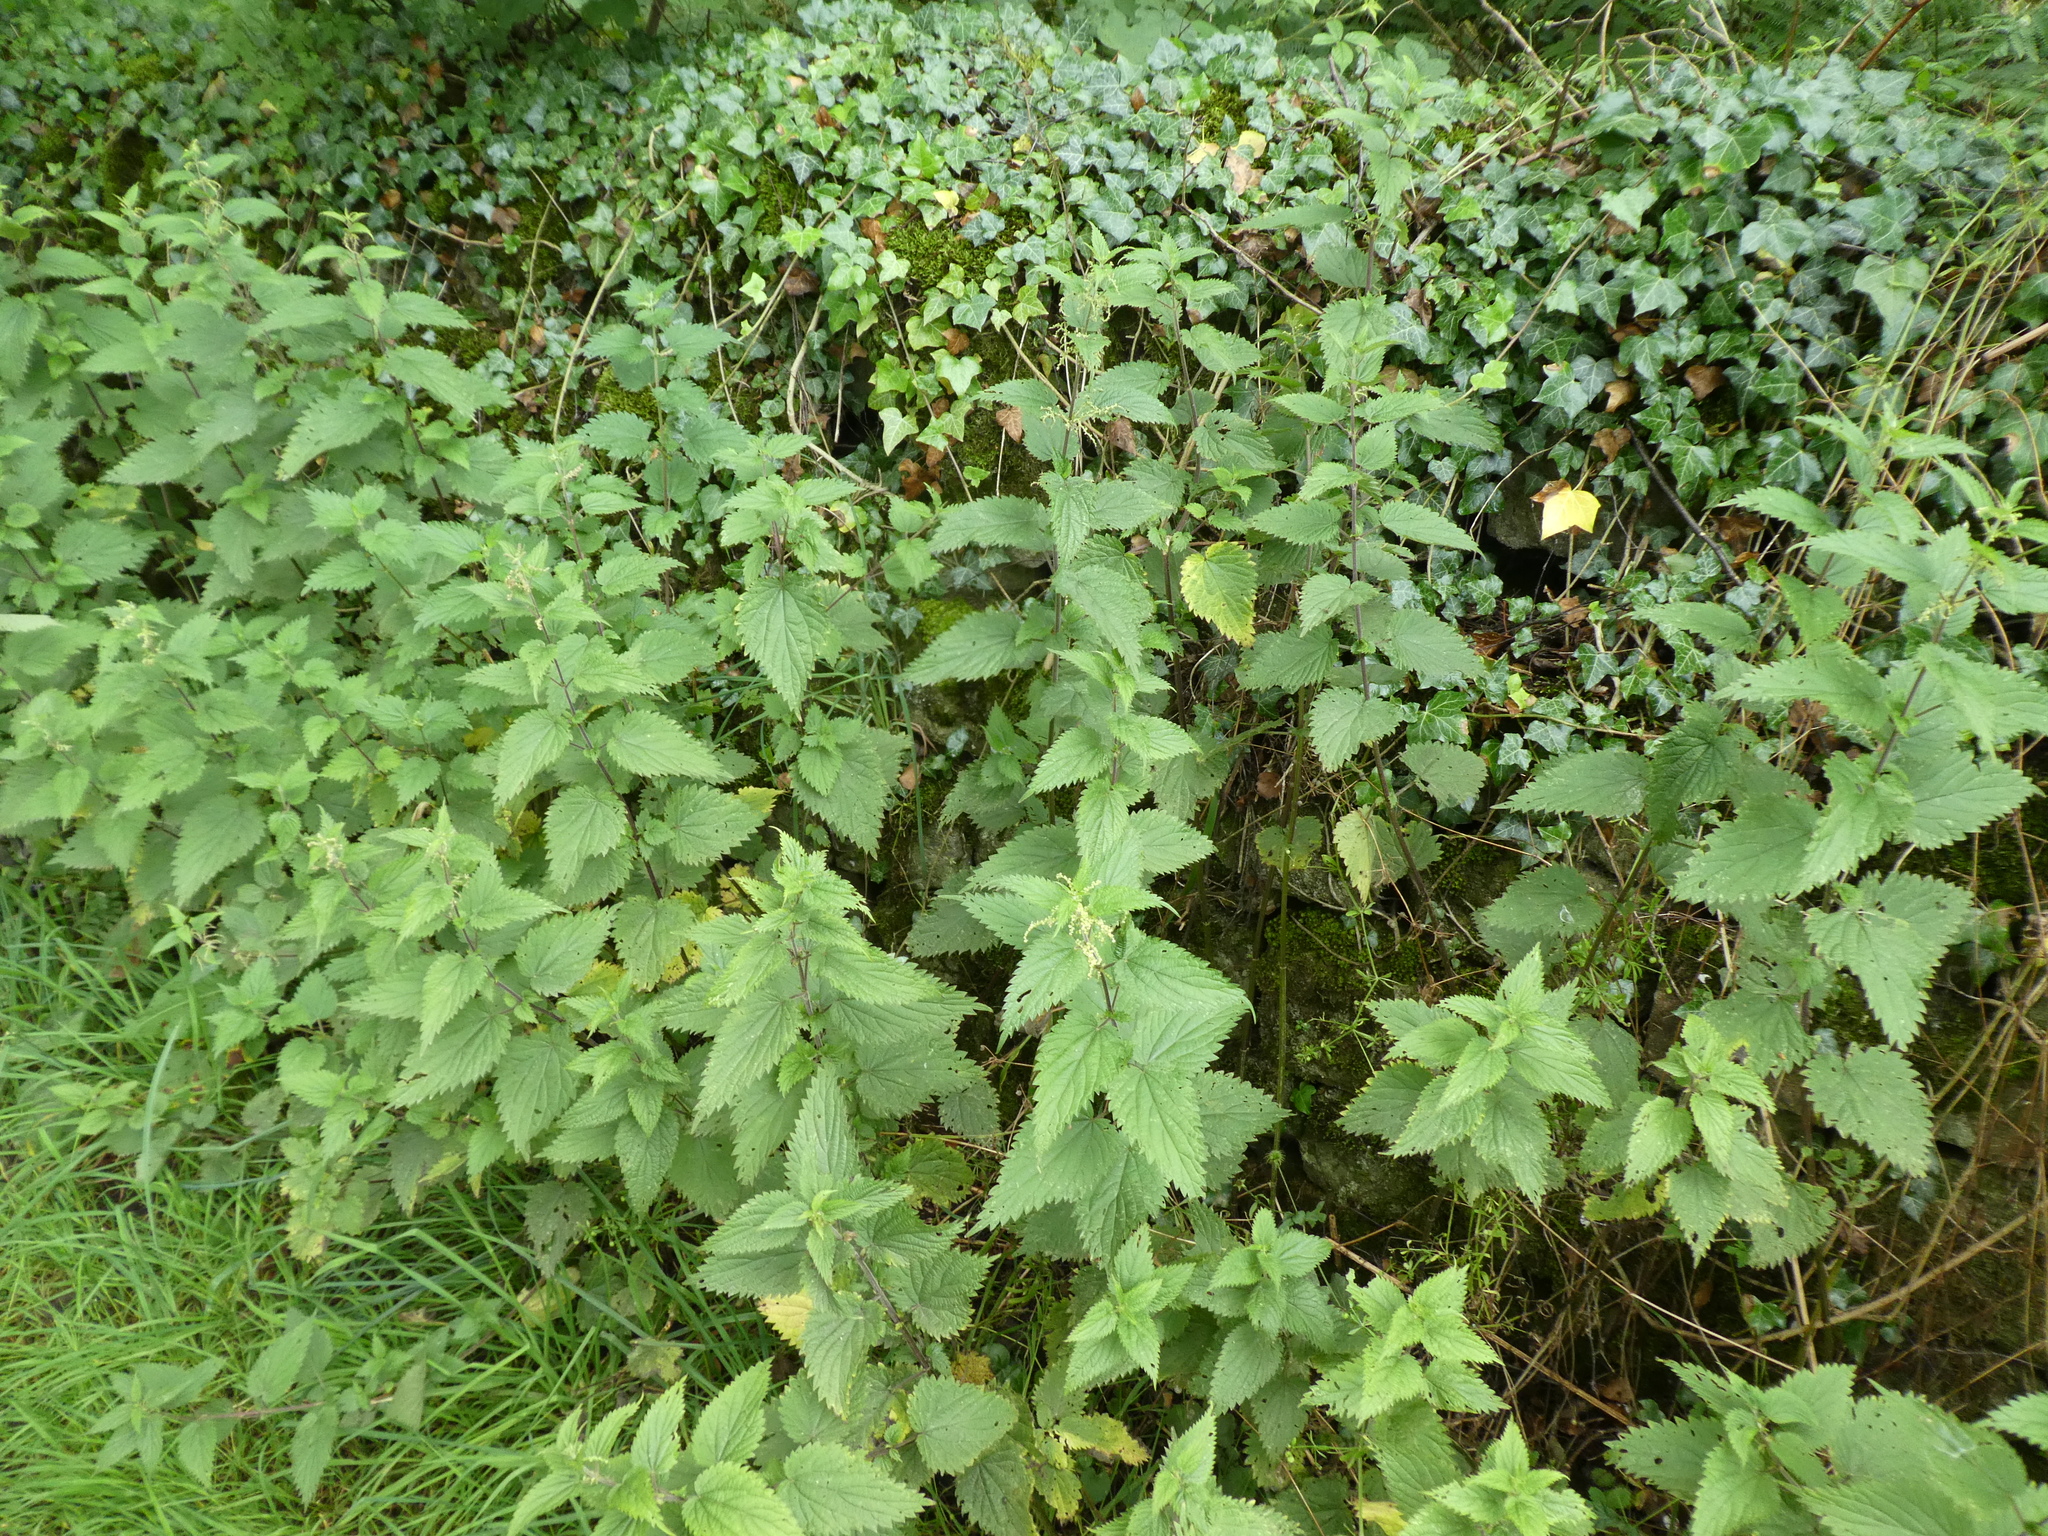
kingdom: Plantae
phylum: Tracheophyta
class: Magnoliopsida
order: Rosales
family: Urticaceae
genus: Urtica
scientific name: Urtica dioica
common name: Common nettle
